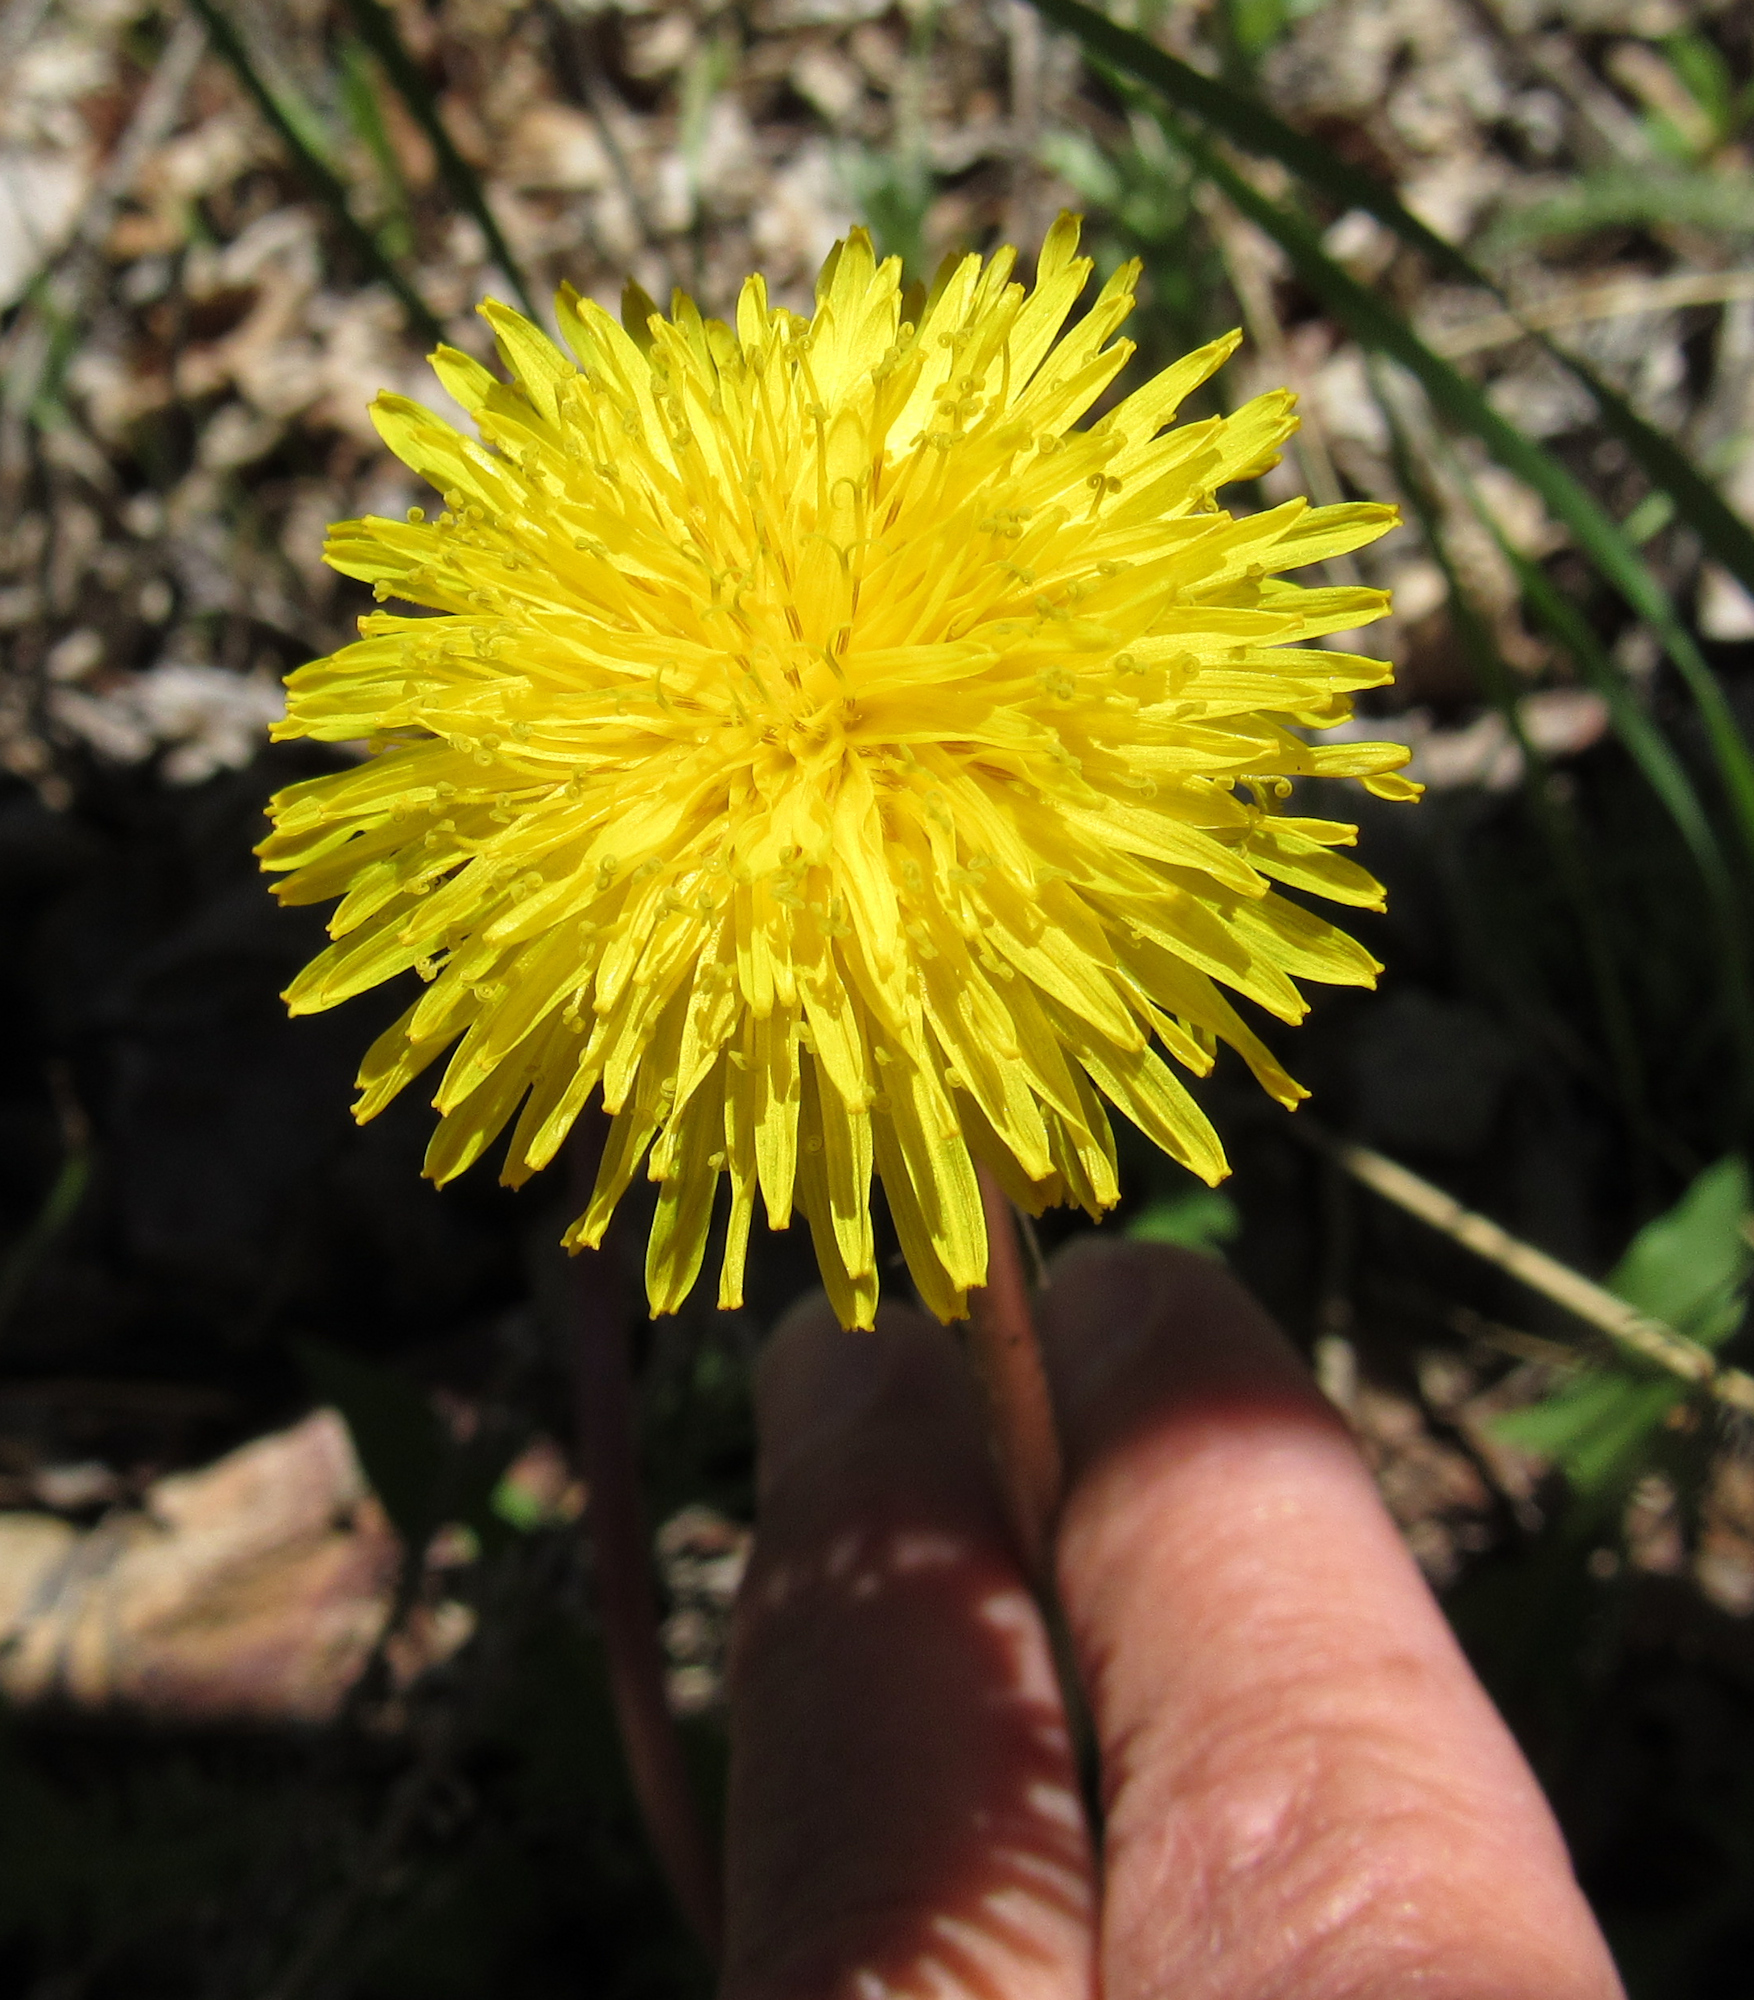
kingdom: Plantae
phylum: Tracheophyta
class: Magnoliopsida
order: Asterales
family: Asteraceae
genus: Taraxacum
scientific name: Taraxacum officinale
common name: Common dandelion
